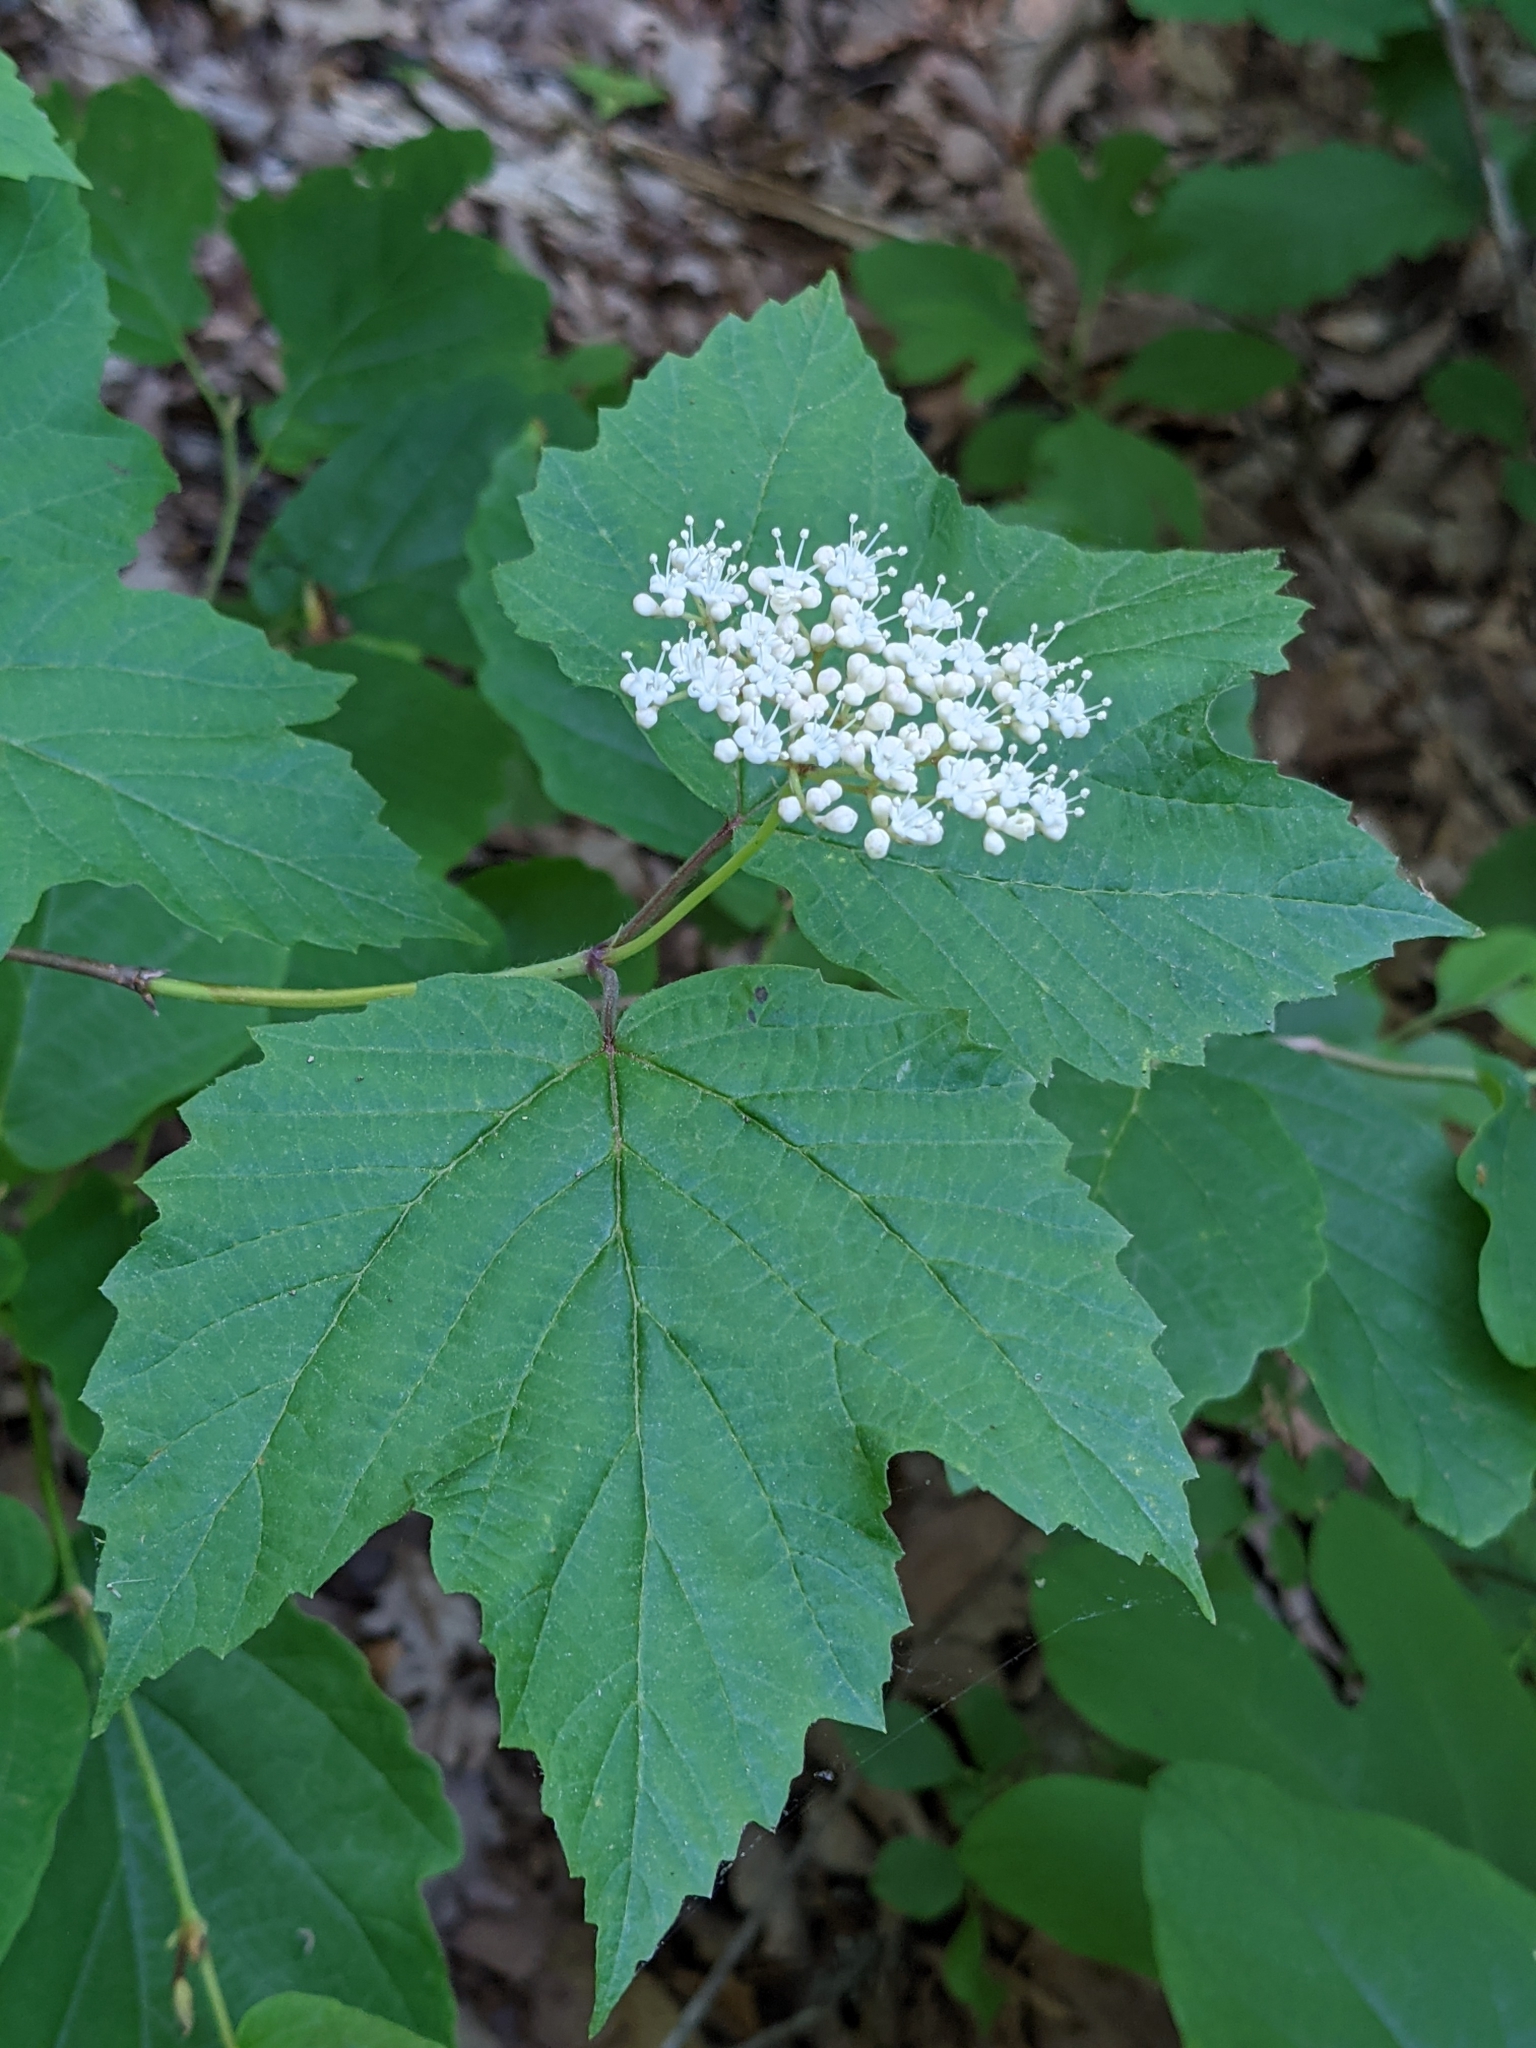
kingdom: Plantae
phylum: Tracheophyta
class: Magnoliopsida
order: Dipsacales
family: Viburnaceae
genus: Viburnum
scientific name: Viburnum acerifolium
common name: Dockmackie
